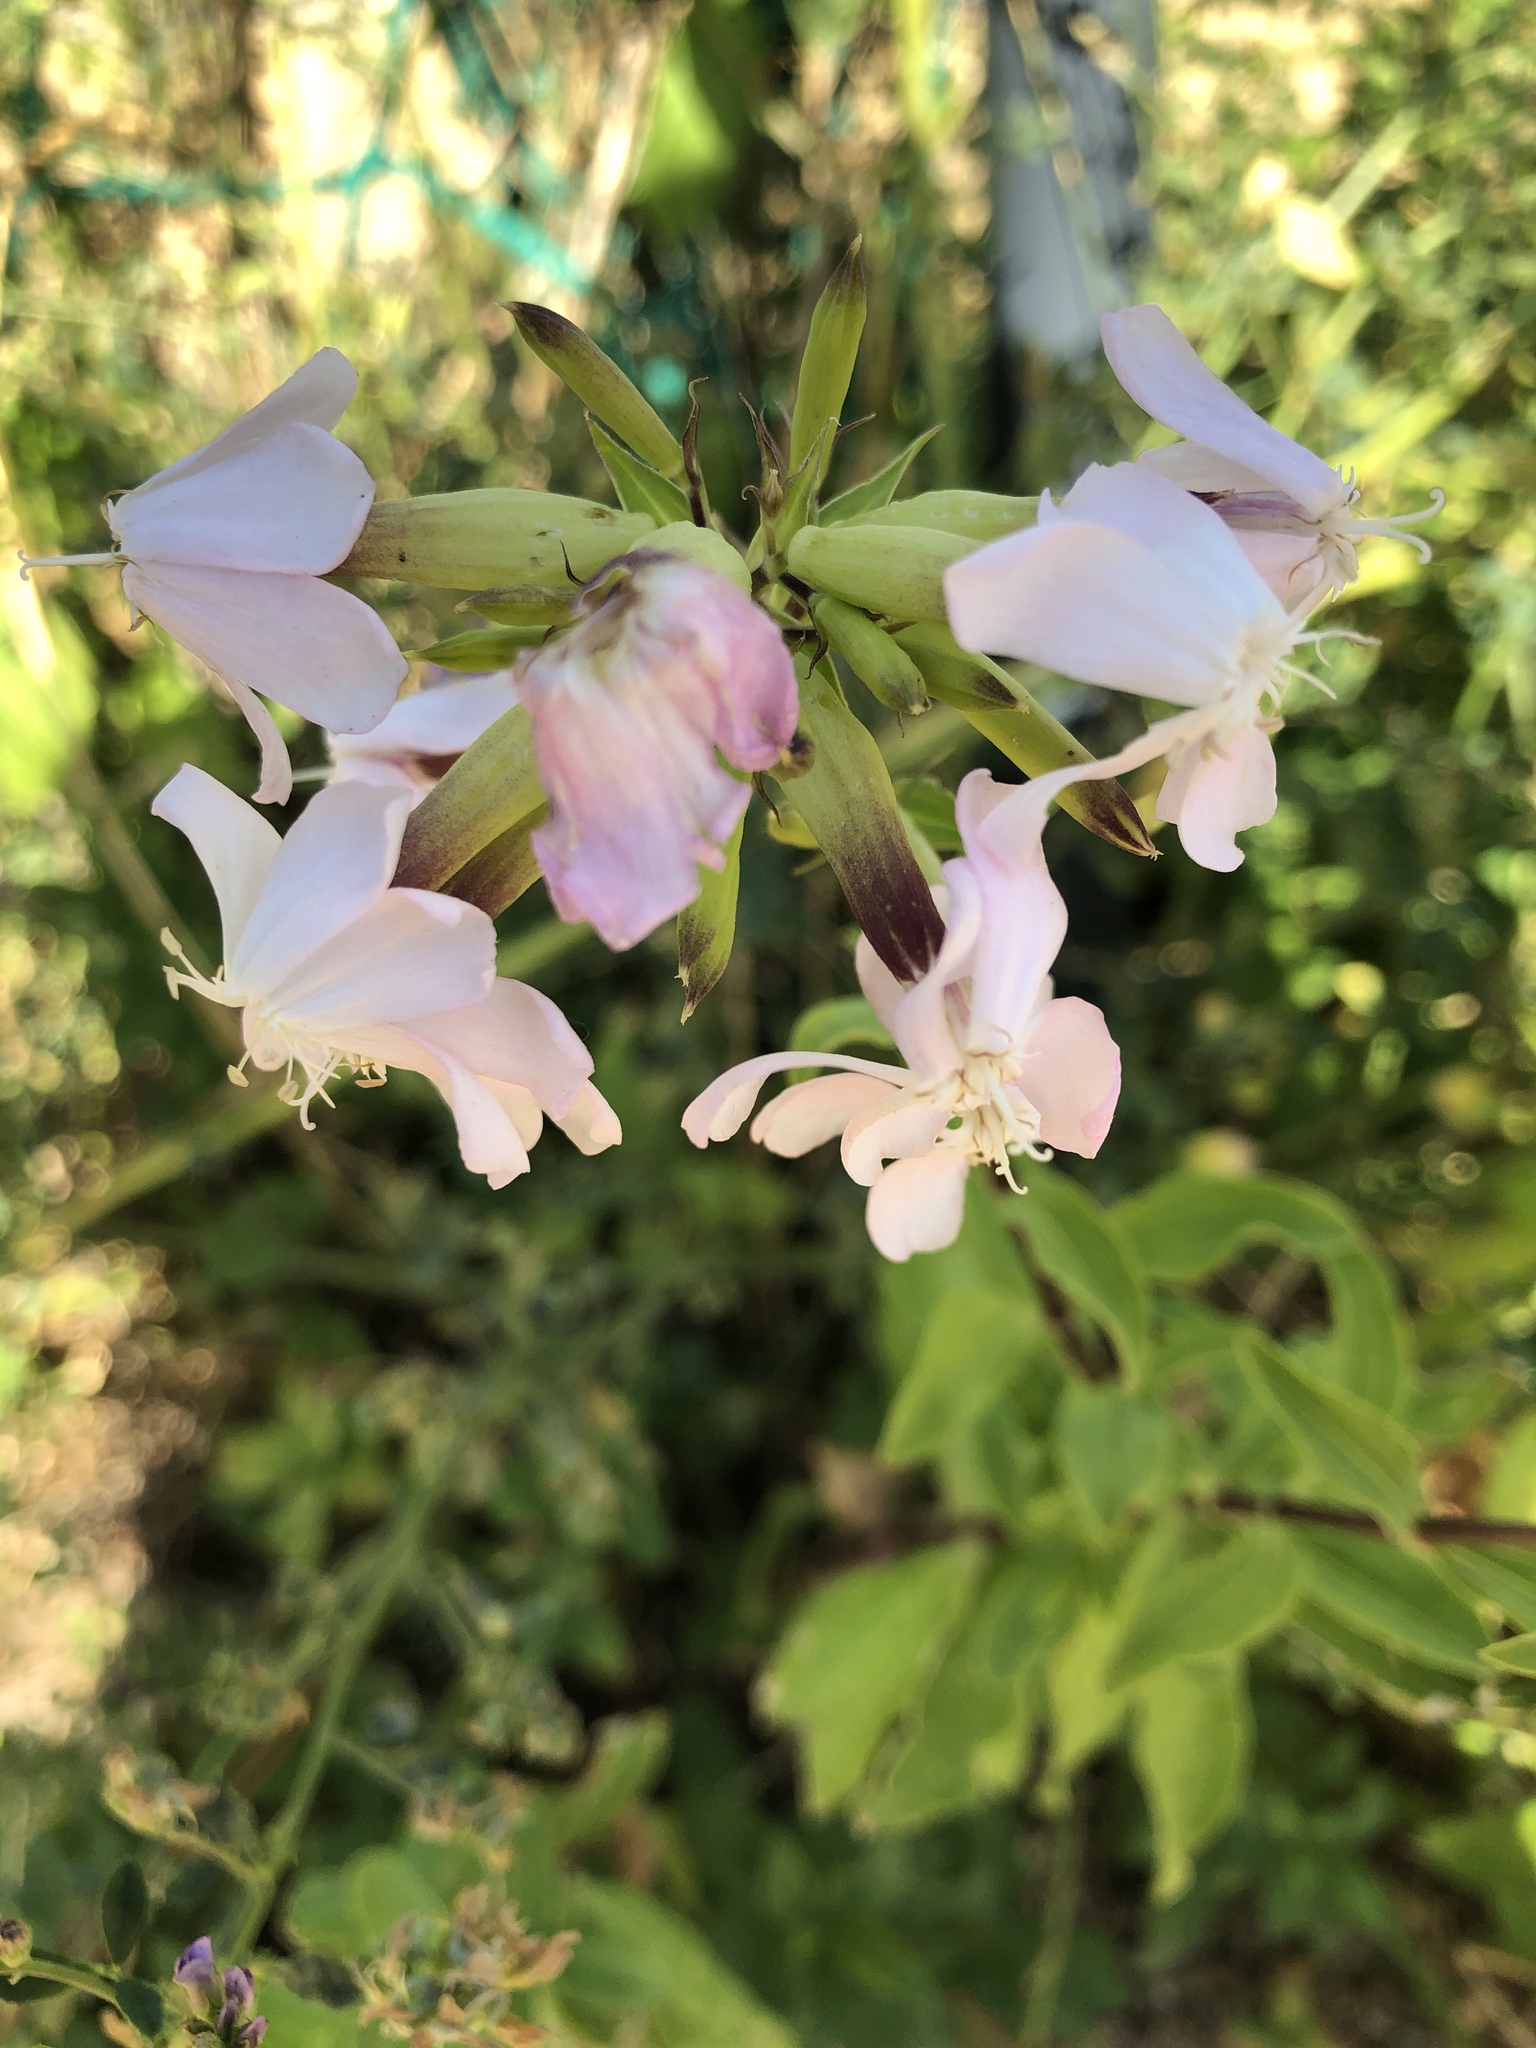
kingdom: Plantae
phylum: Tracheophyta
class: Magnoliopsida
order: Caryophyllales
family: Caryophyllaceae
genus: Saponaria
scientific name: Saponaria officinalis
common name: Soapwort
